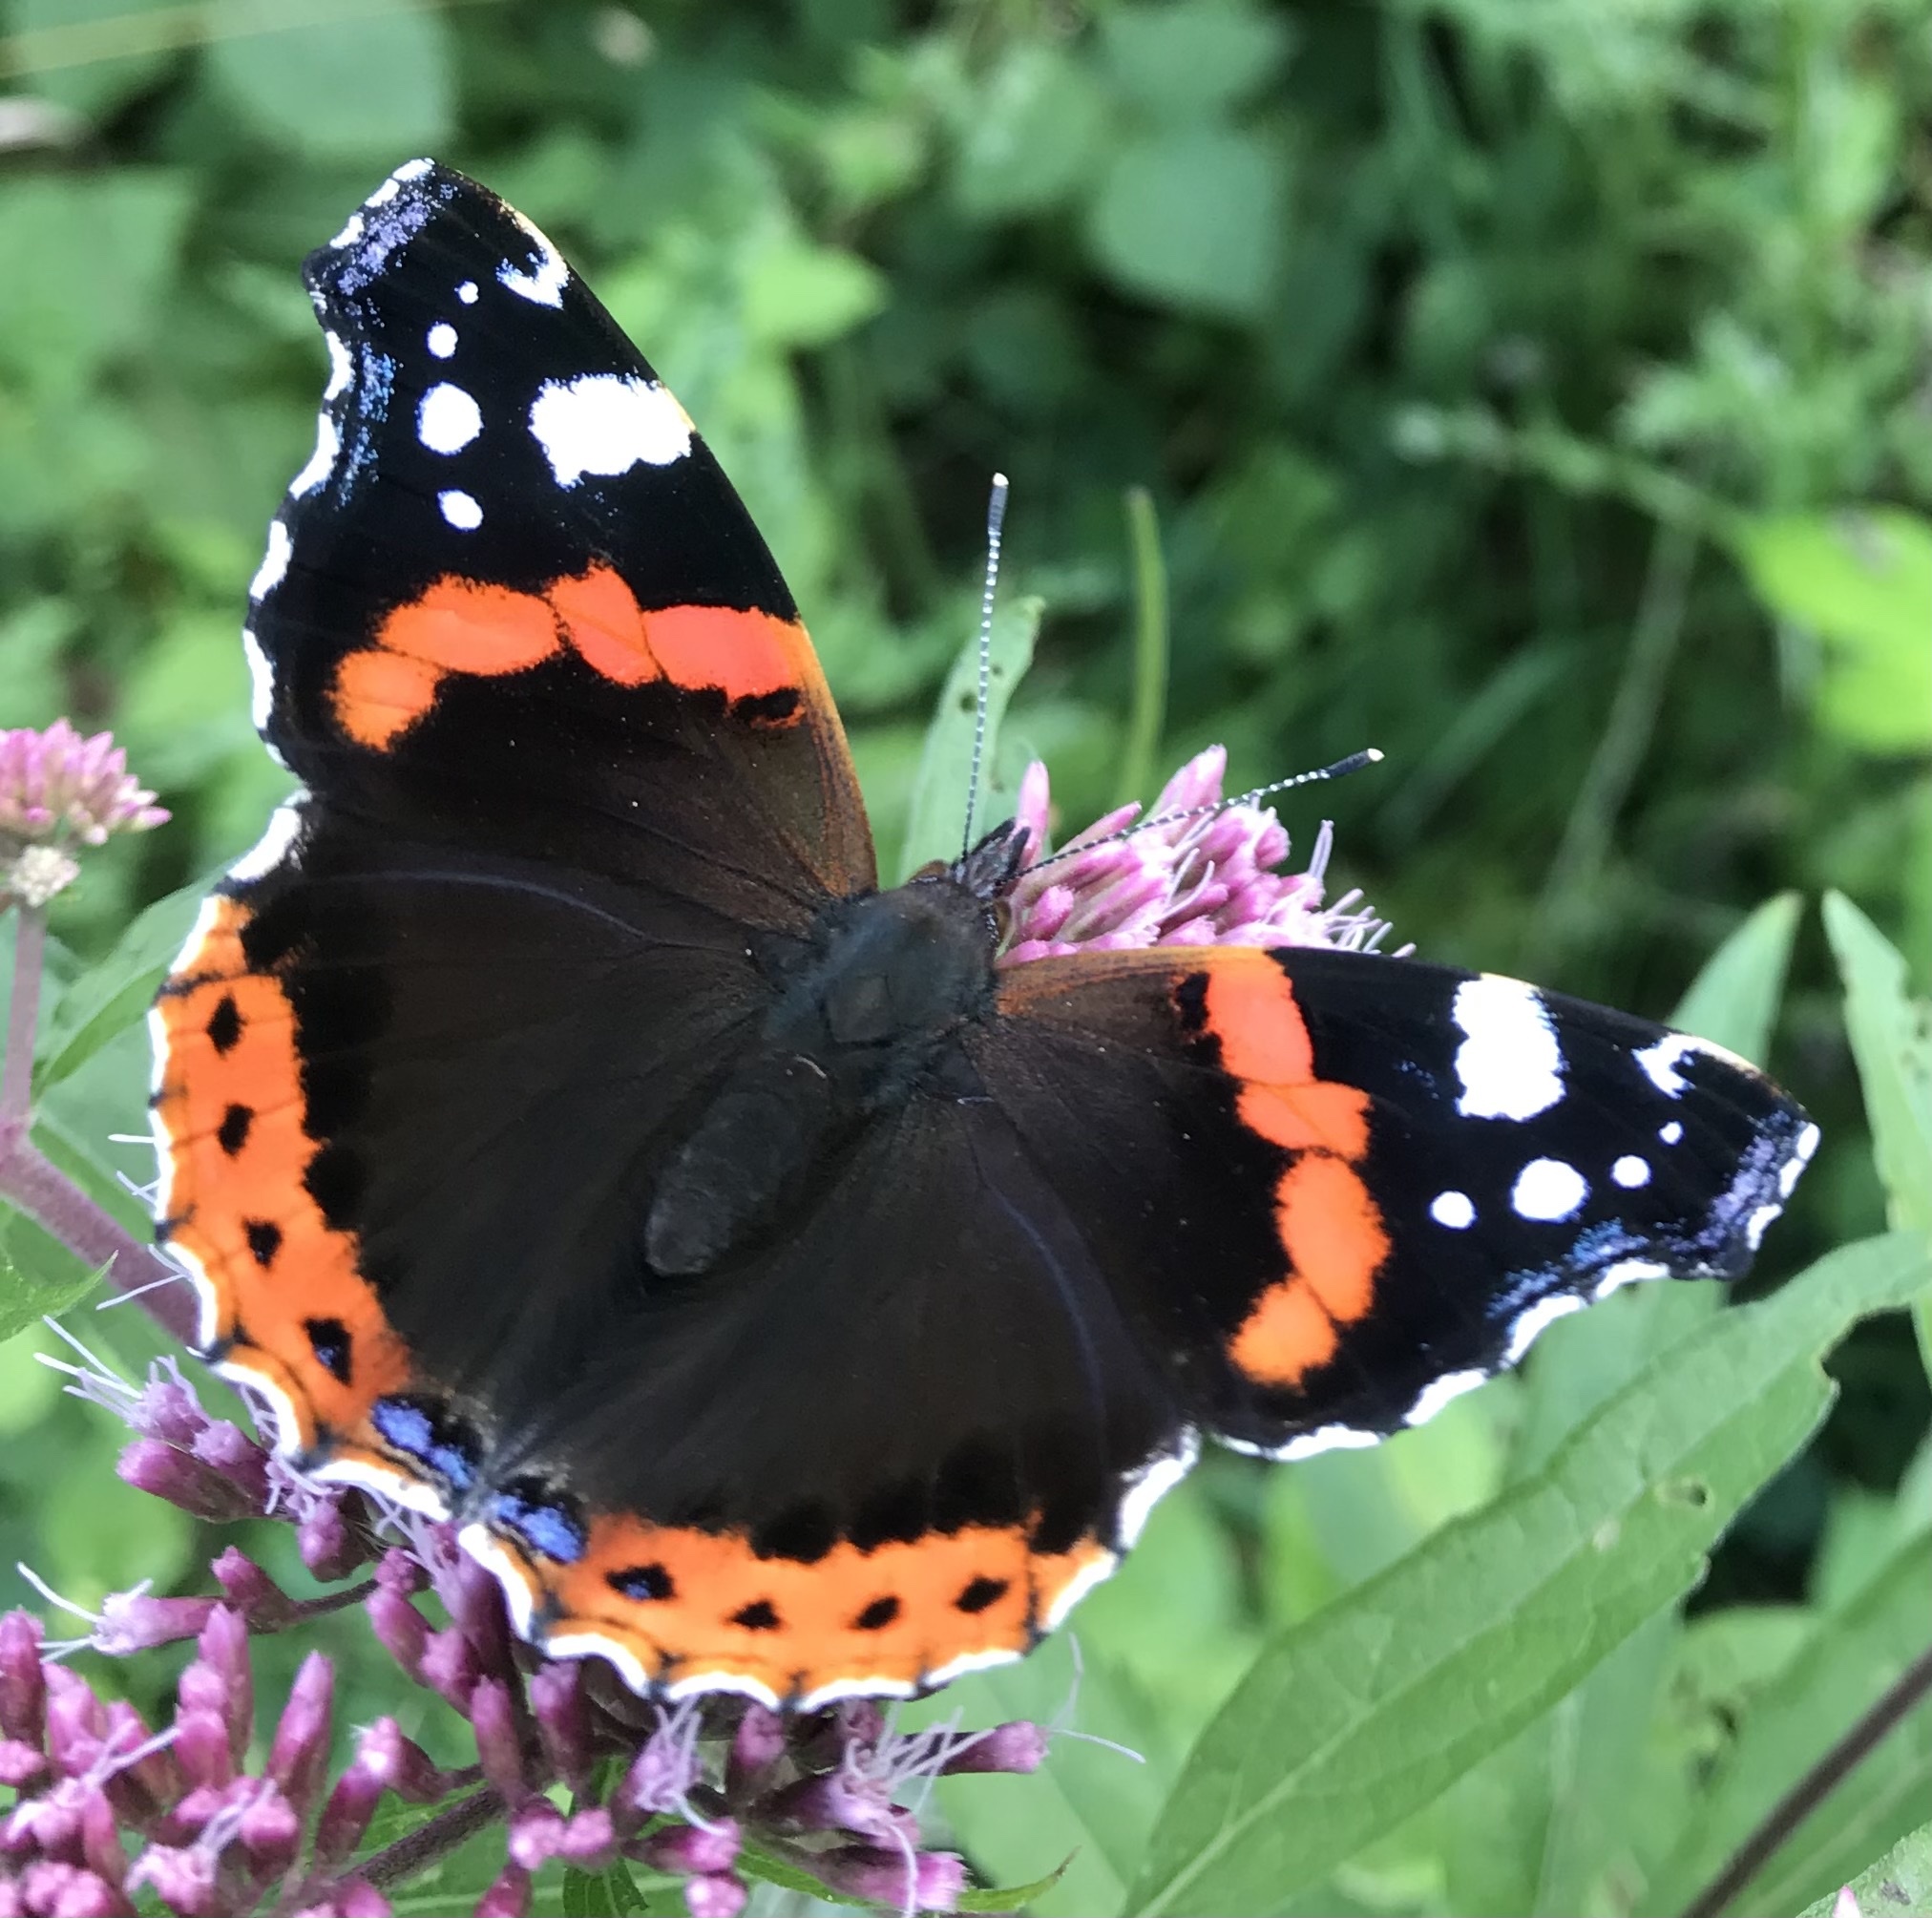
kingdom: Animalia
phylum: Arthropoda
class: Insecta
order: Lepidoptera
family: Nymphalidae
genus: Vanessa
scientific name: Vanessa atalanta
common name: Red admiral
